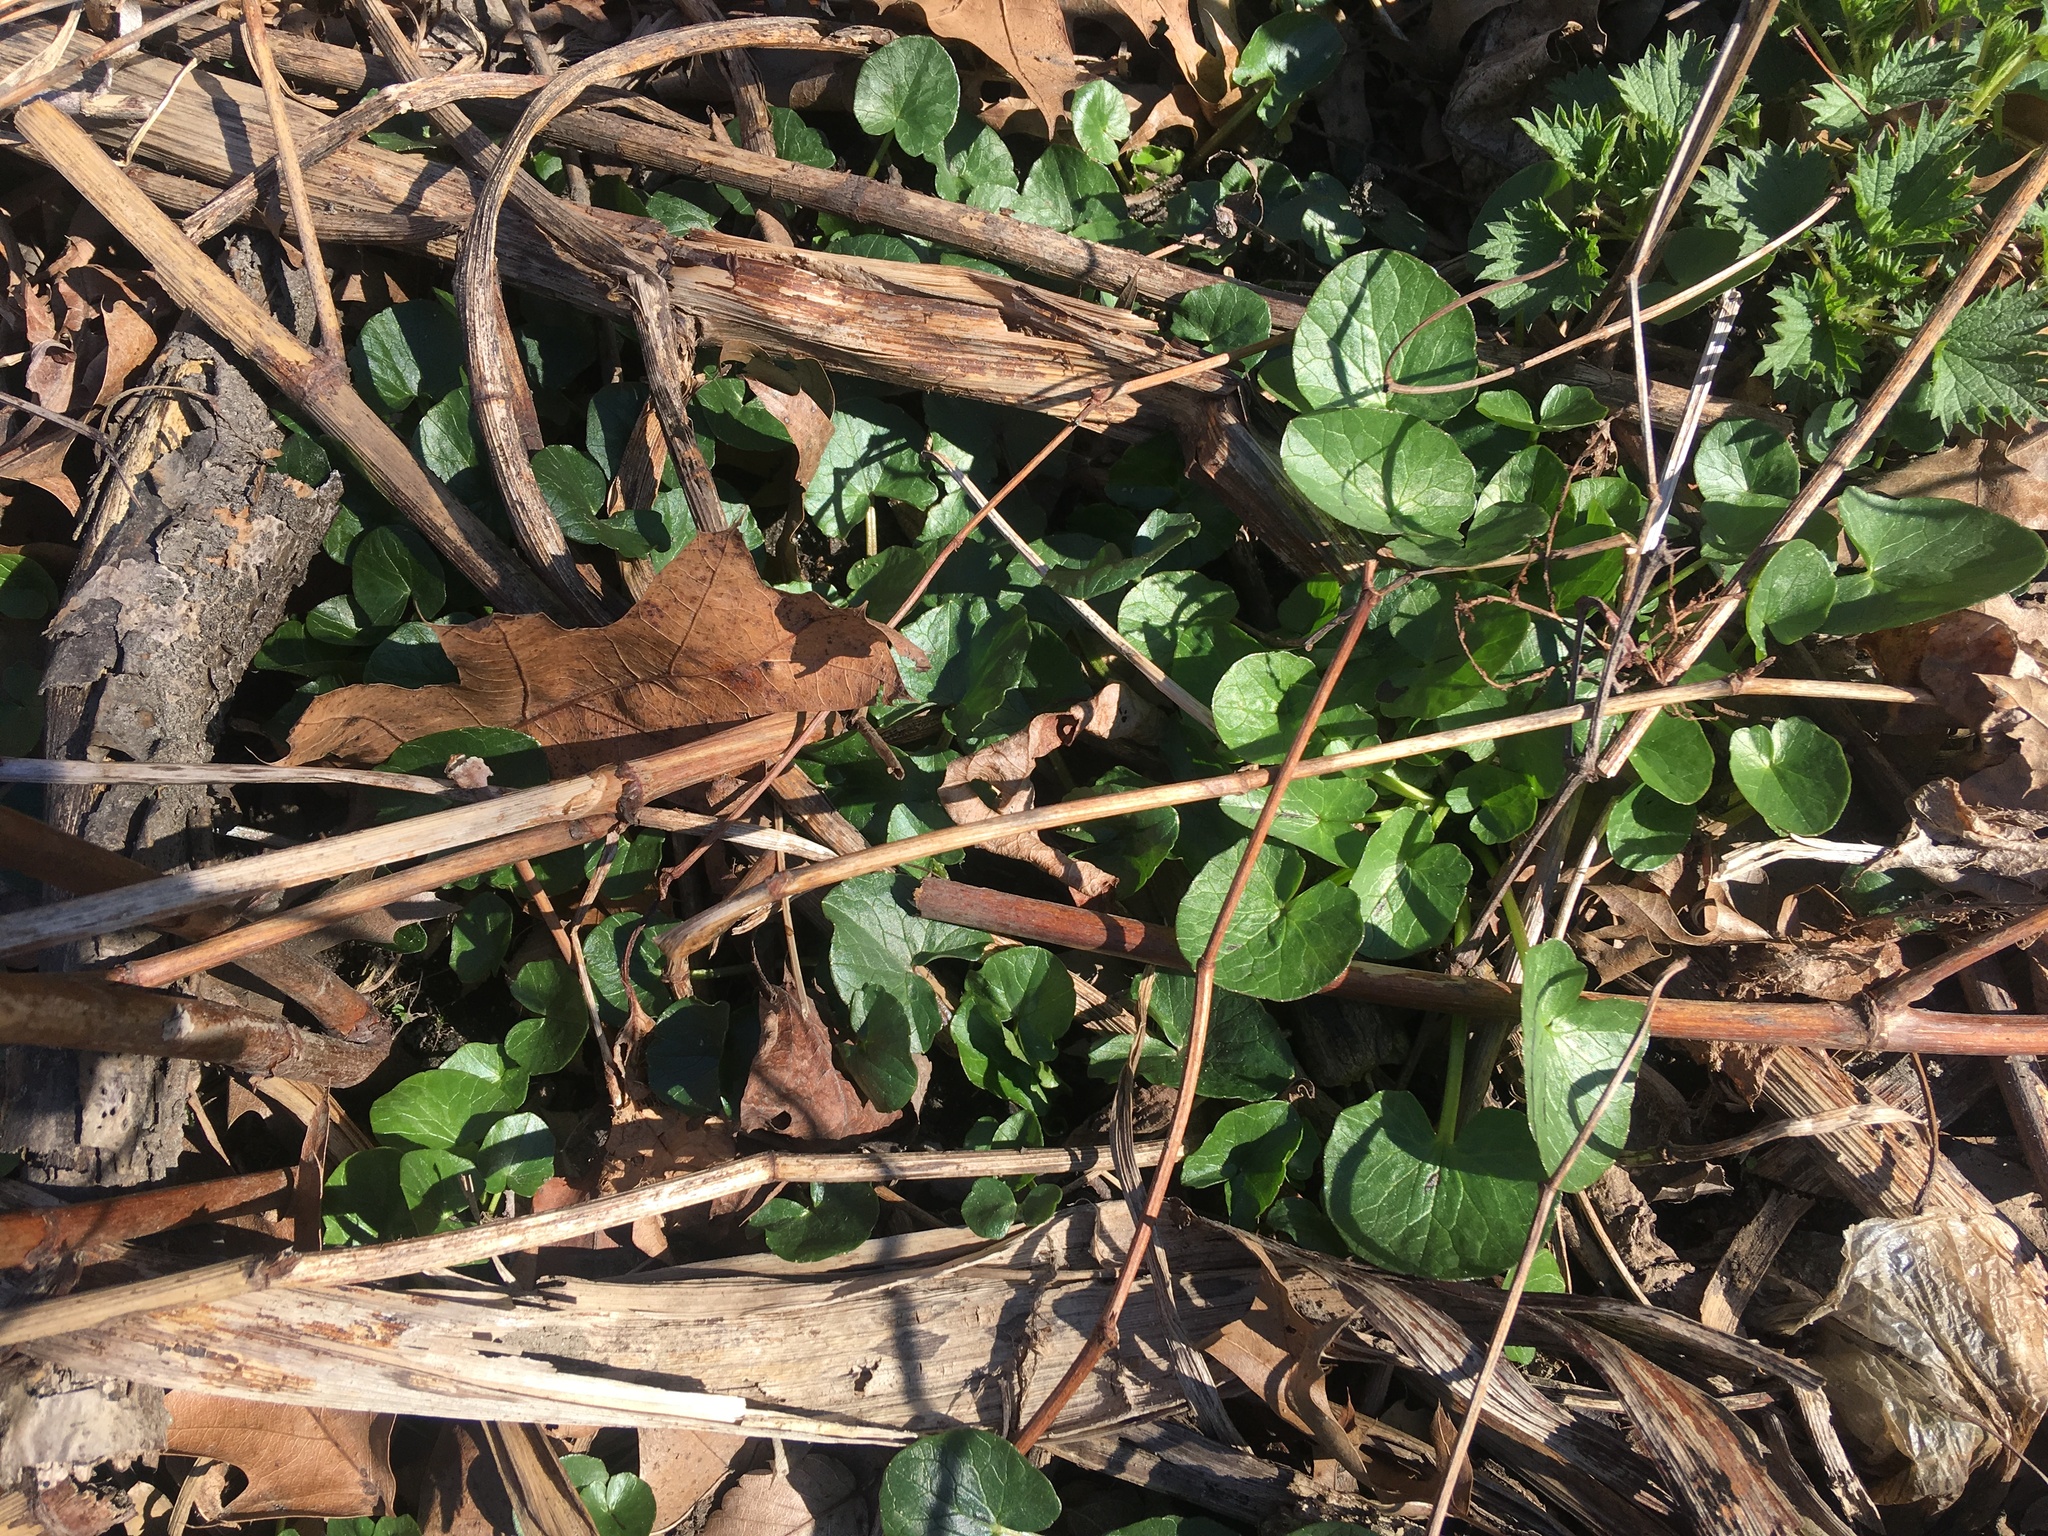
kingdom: Plantae
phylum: Tracheophyta
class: Magnoliopsida
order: Ranunculales
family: Ranunculaceae
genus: Ficaria
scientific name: Ficaria verna
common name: Lesser celandine
